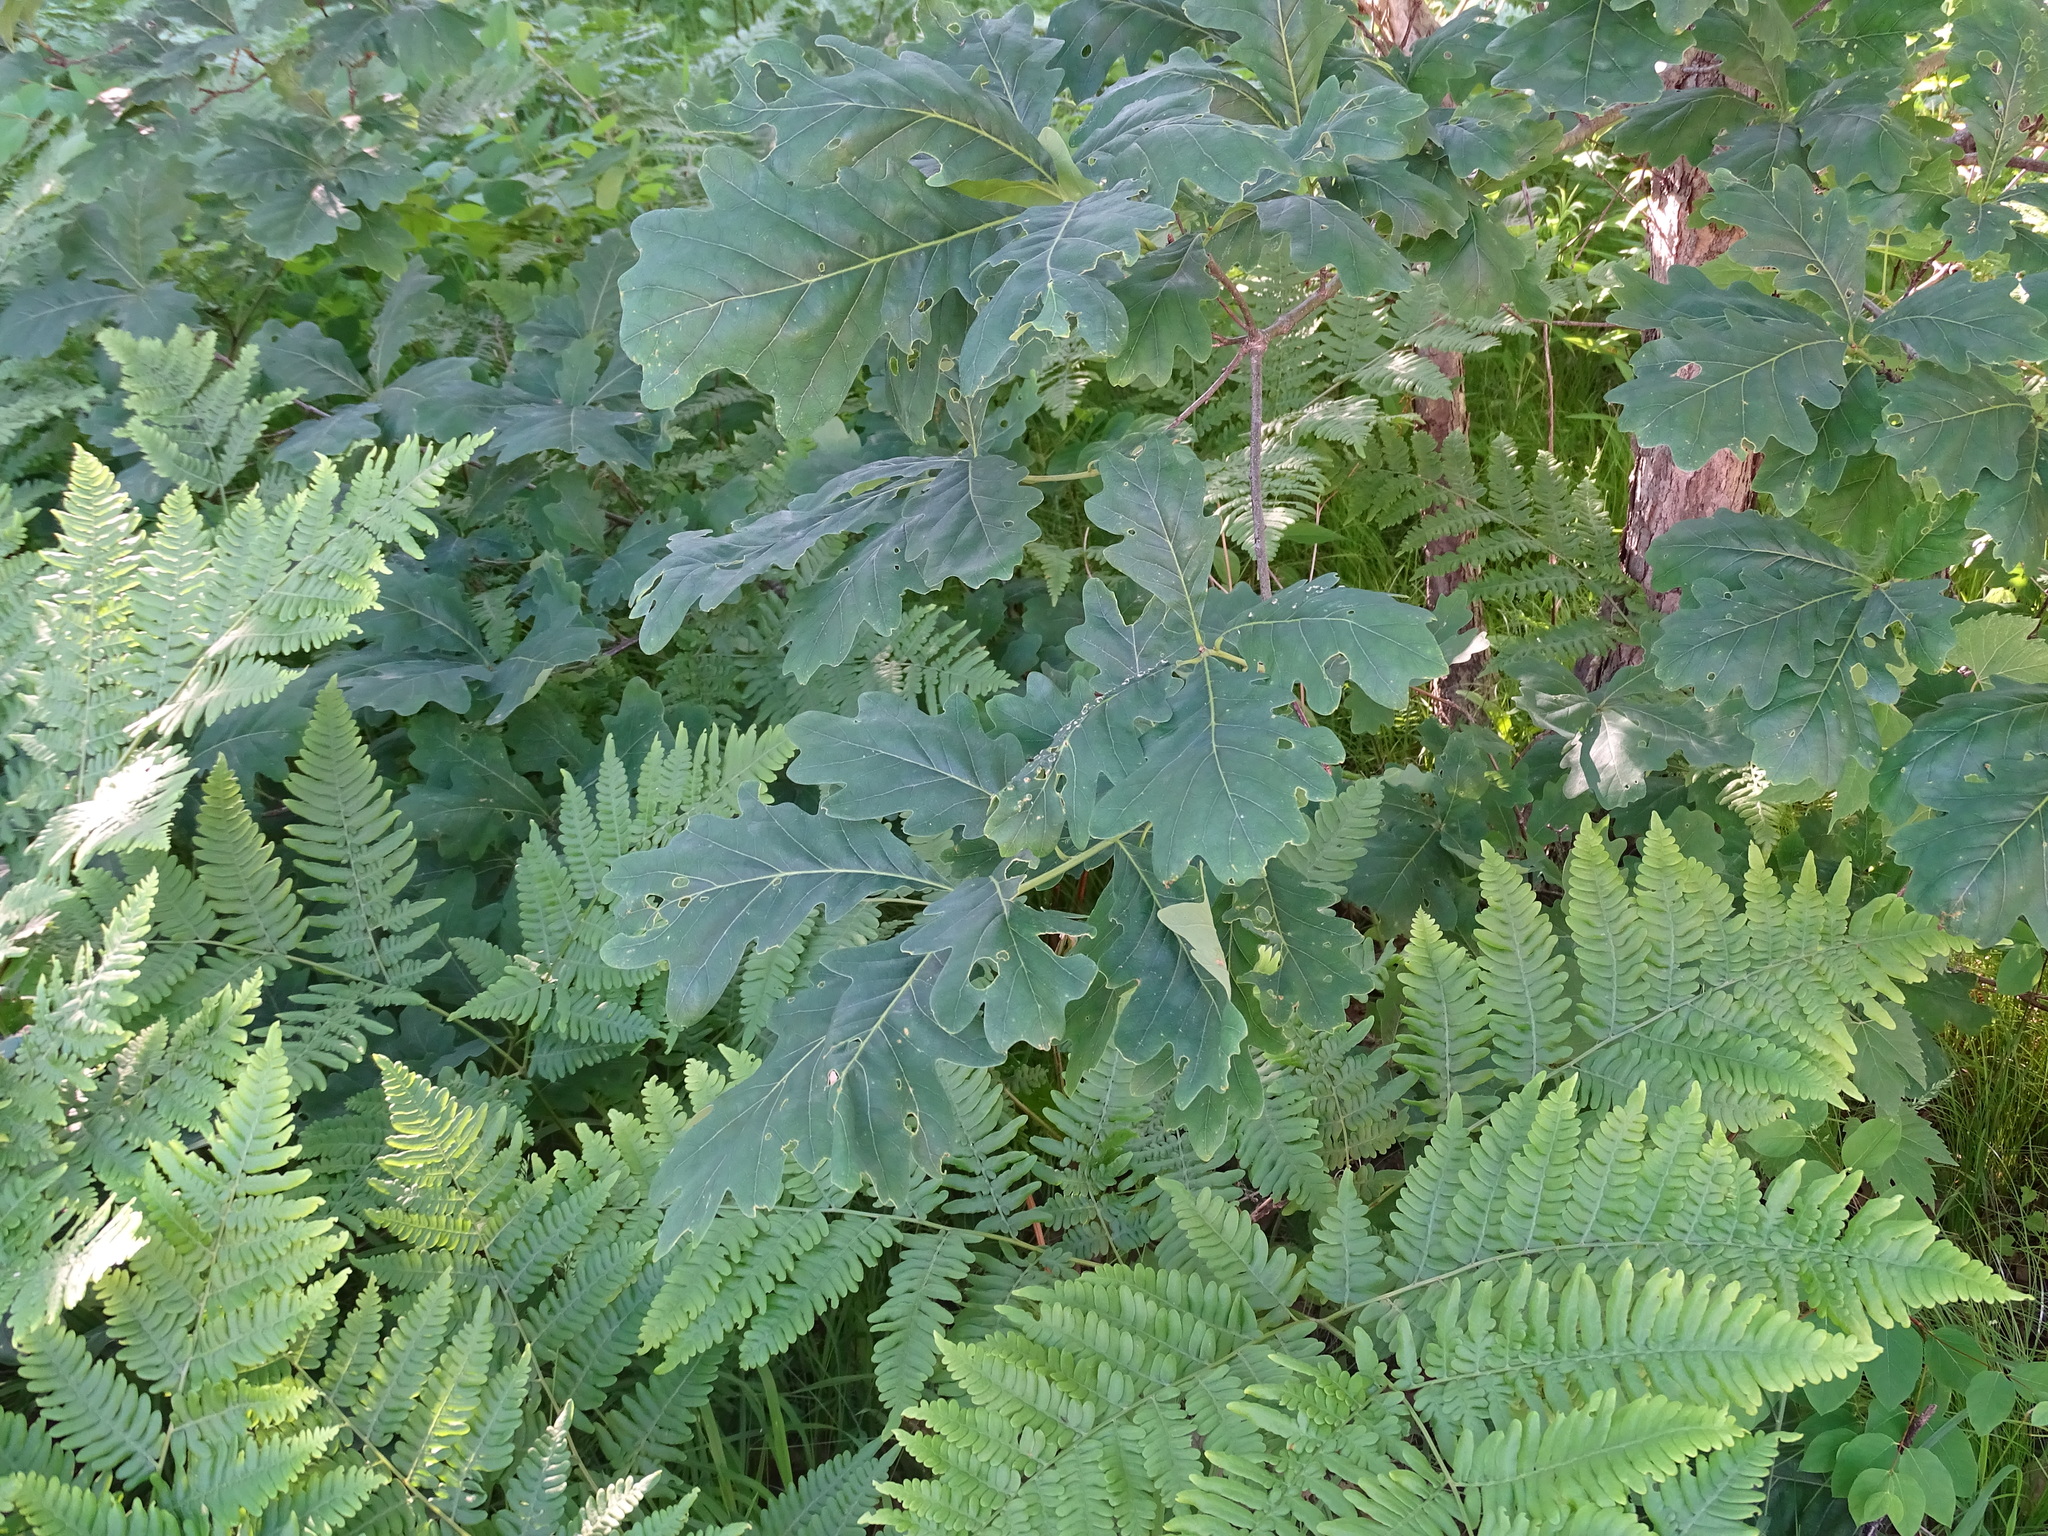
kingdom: Plantae
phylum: Tracheophyta
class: Magnoliopsida
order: Fagales
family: Fagaceae
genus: Quercus
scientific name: Quercus alba
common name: White oak
